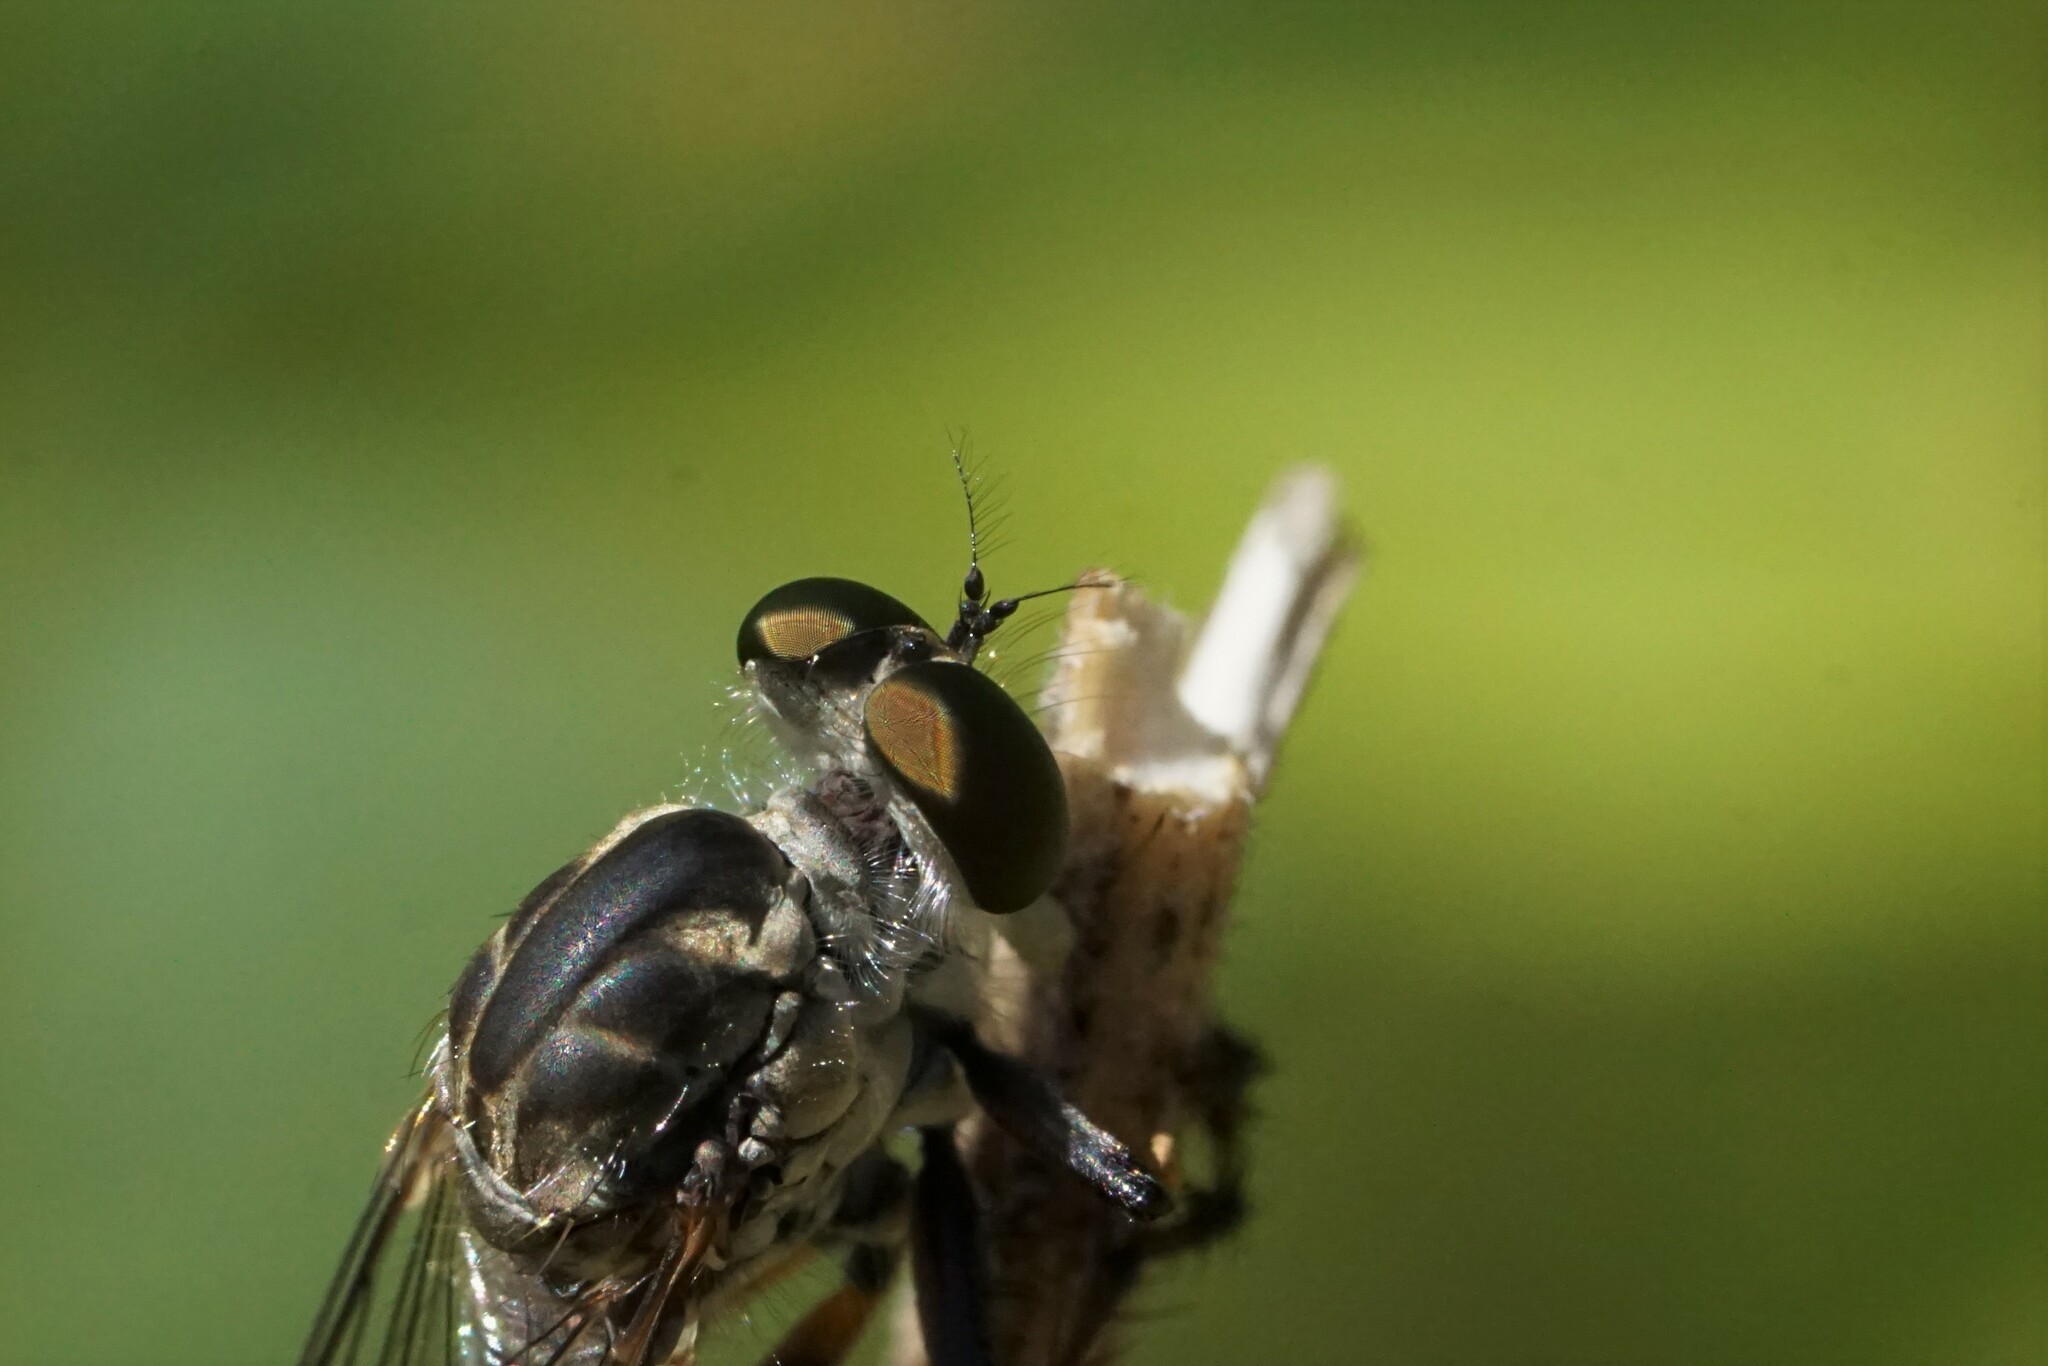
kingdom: Animalia
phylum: Arthropoda
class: Insecta
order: Diptera
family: Asilidae
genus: Ommatius
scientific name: Ommatius tibialis
